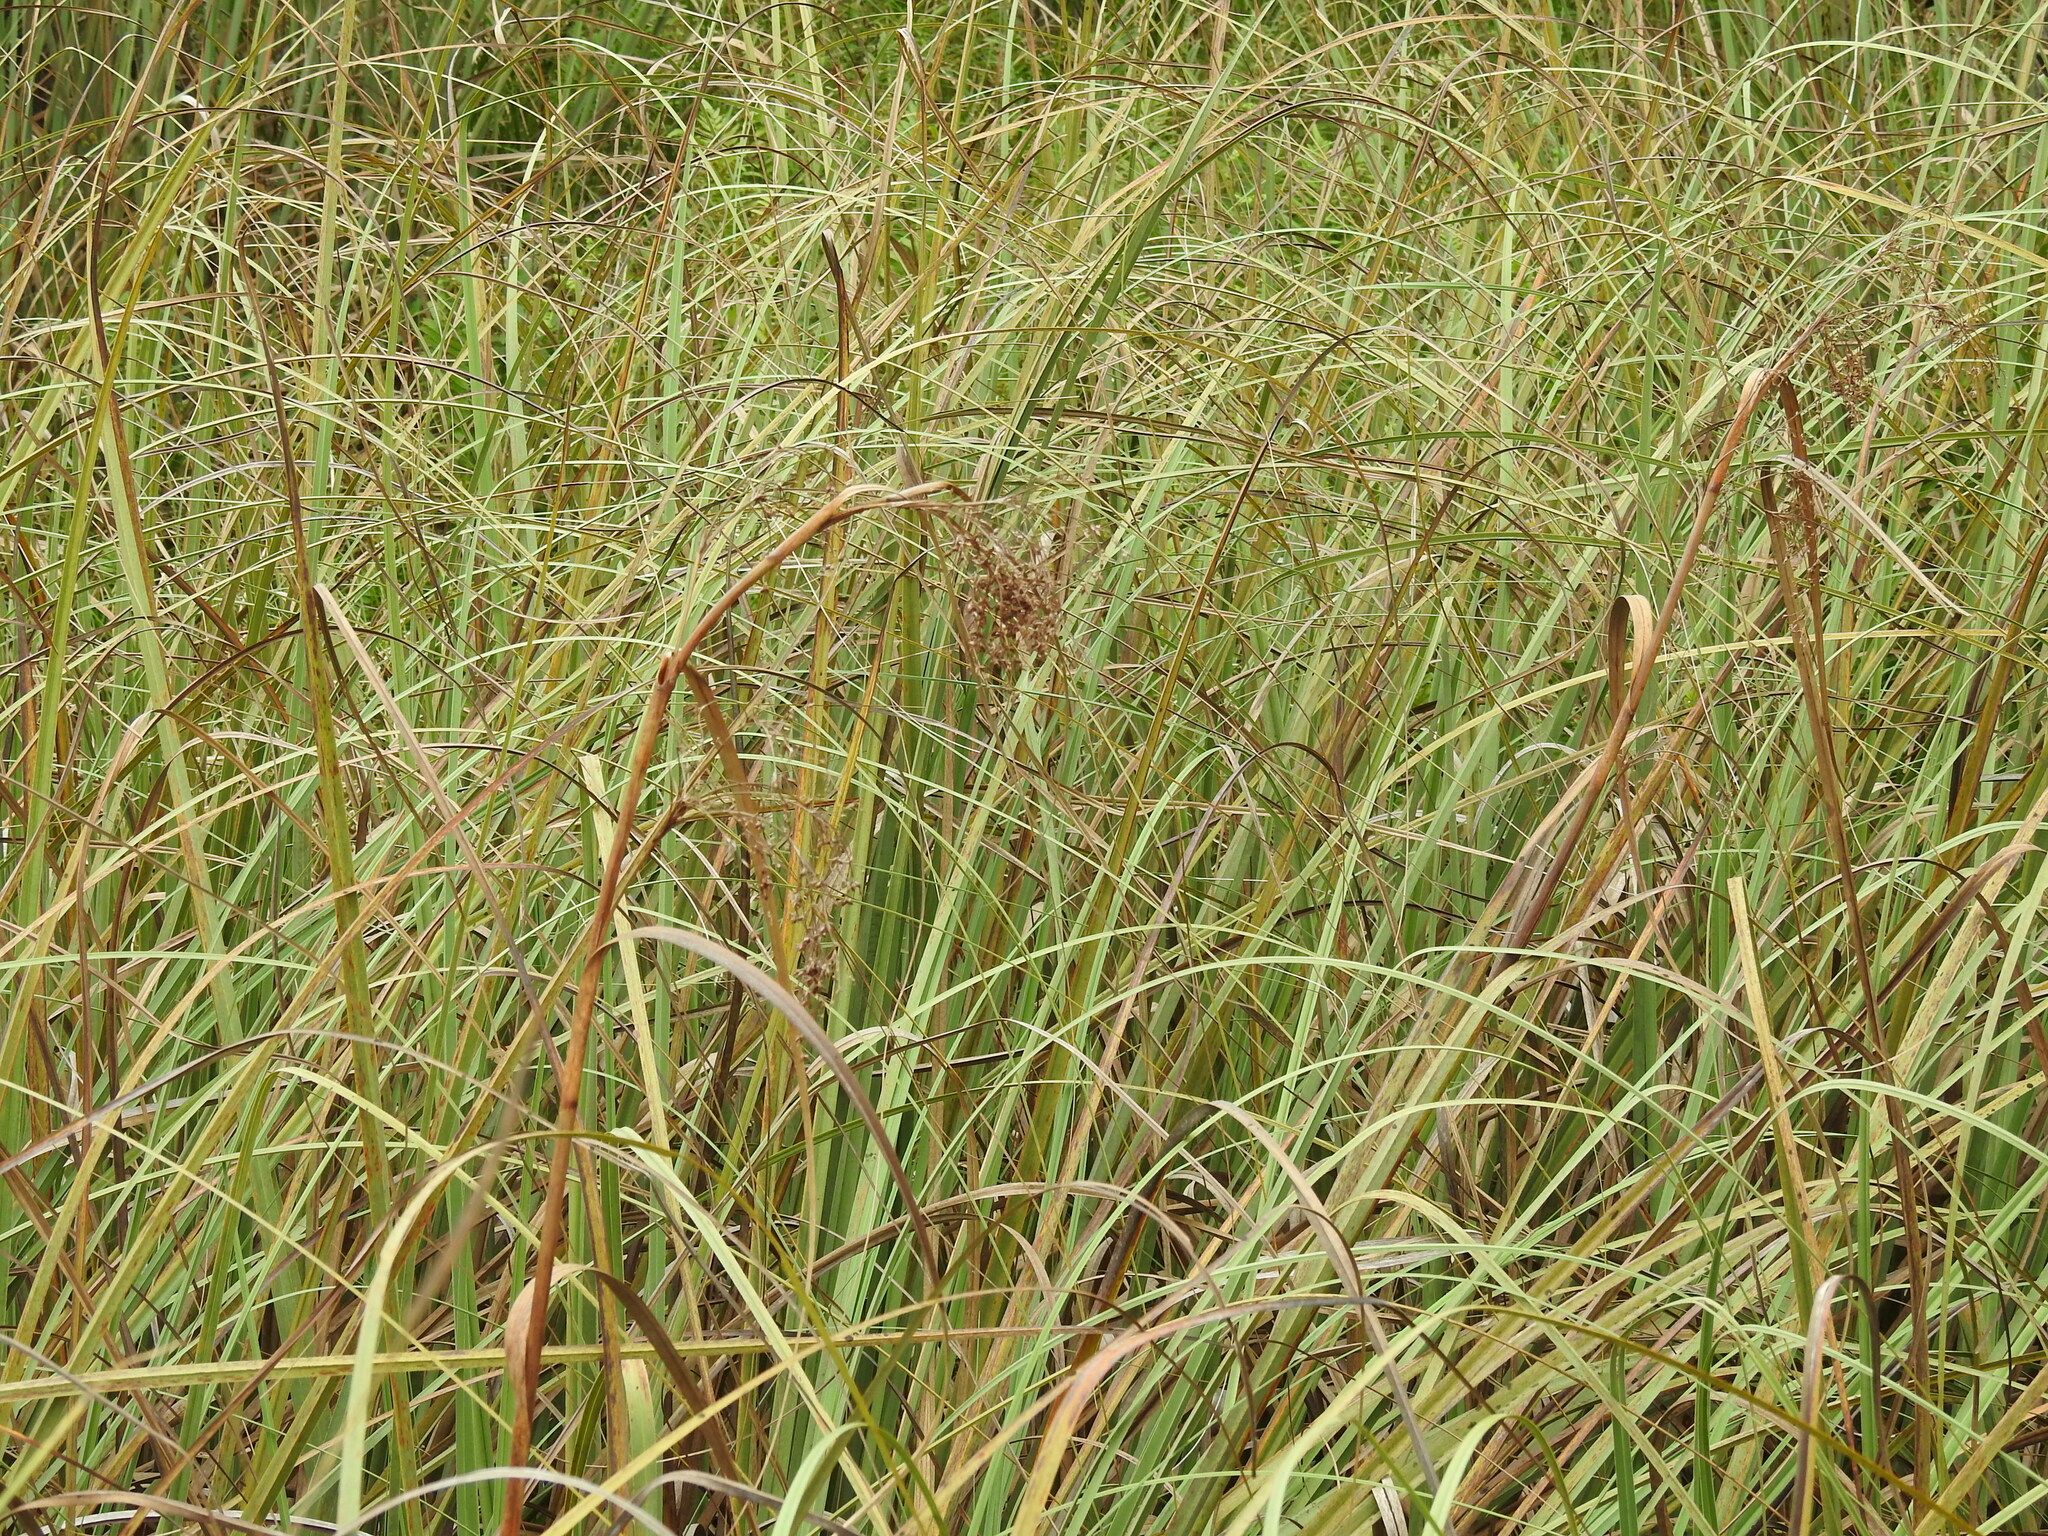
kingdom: Plantae
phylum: Tracheophyta
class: Liliopsida
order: Poales
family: Cyperaceae
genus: Cladium
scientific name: Cladium mariscus
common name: Great fen-sedge
